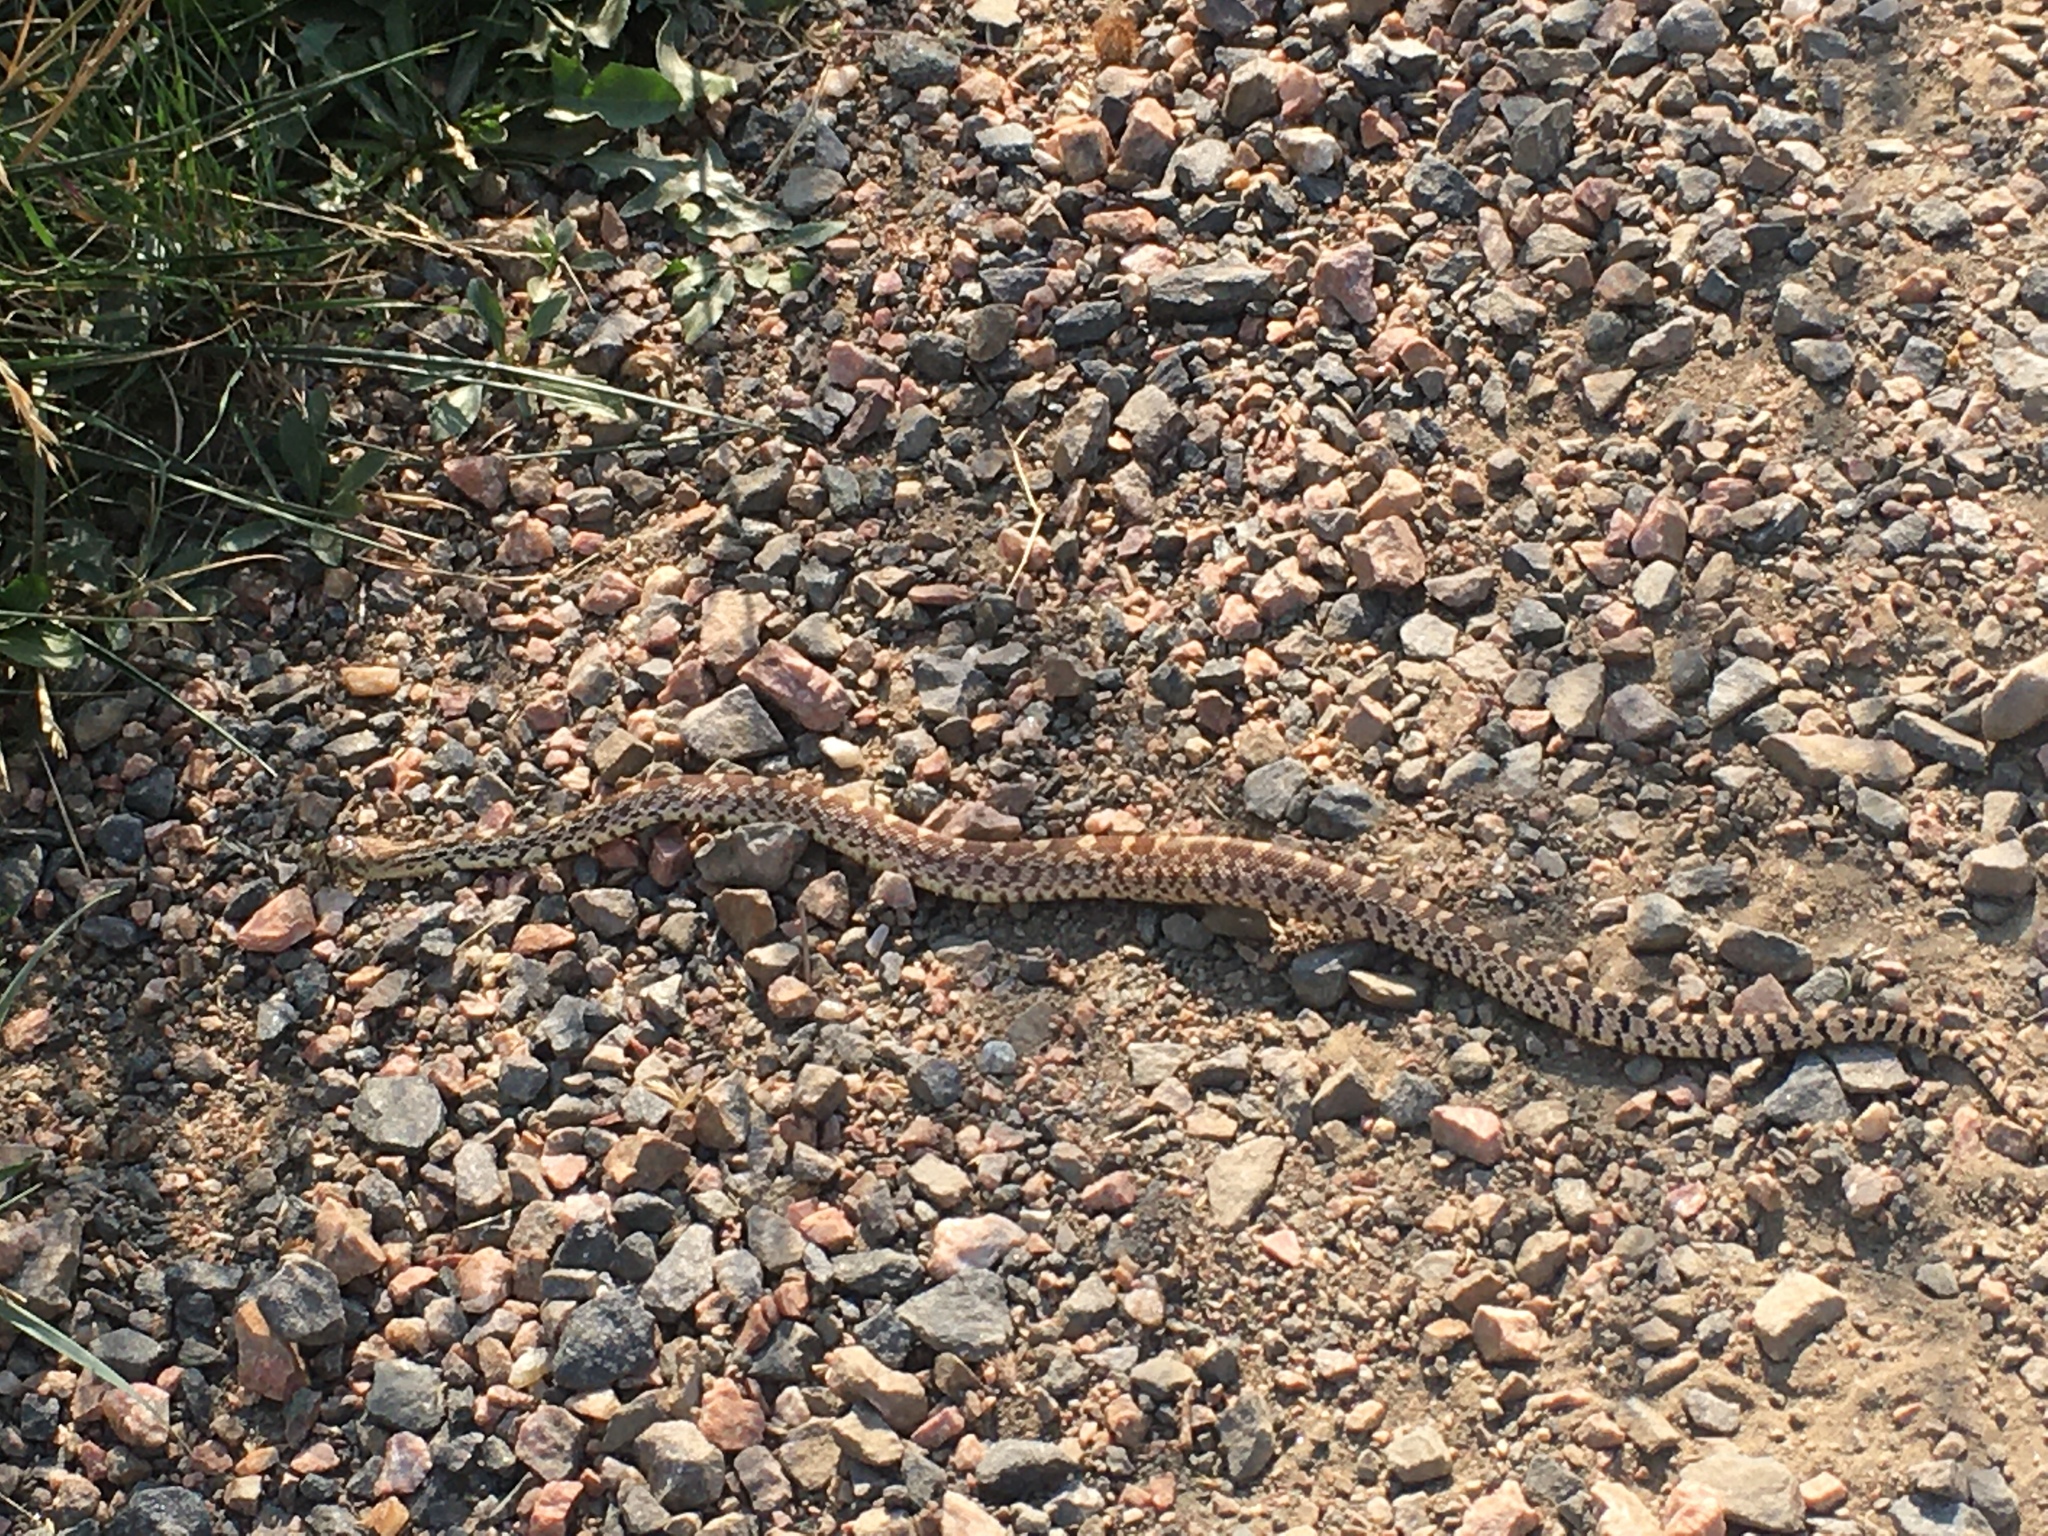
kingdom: Animalia
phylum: Chordata
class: Squamata
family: Colubridae
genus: Pituophis
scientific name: Pituophis catenifer
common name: Gopher snake
